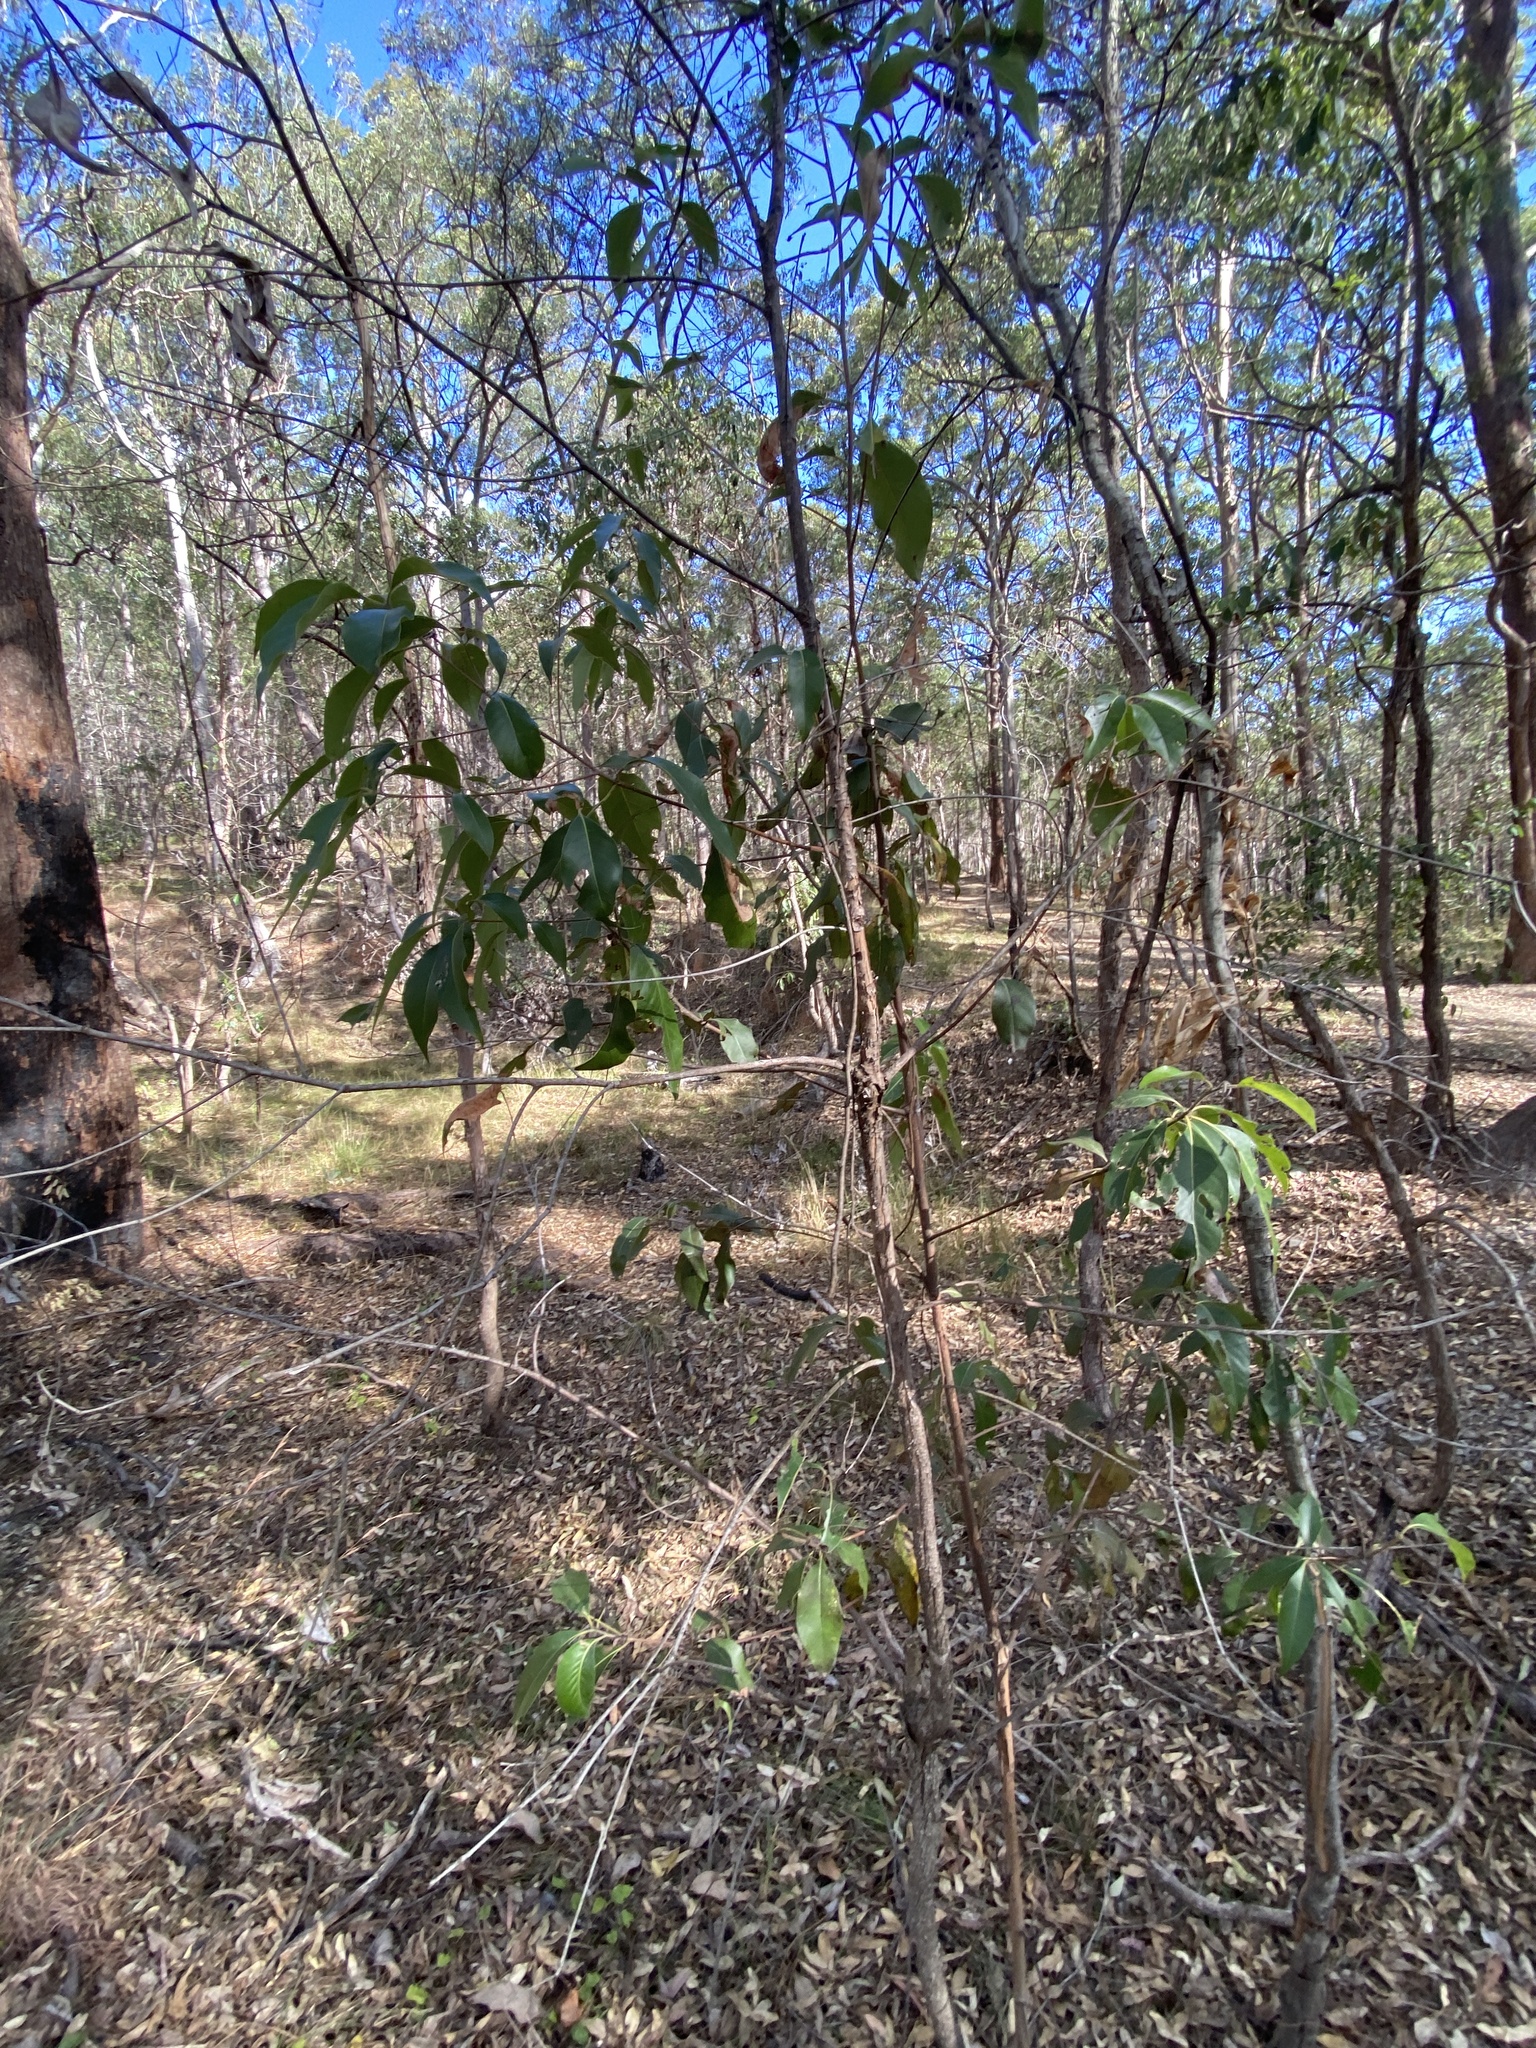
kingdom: Plantae
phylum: Tracheophyta
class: Magnoliopsida
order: Myrtales
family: Myrtaceae
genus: Lophostemon
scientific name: Lophostemon confertus
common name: Brisbane box
